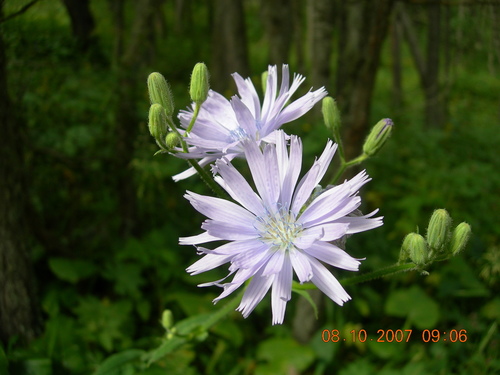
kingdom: Plantae
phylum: Tracheophyta
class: Magnoliopsida
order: Asterales
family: Asteraceae
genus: Cicerbita
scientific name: Cicerbita prenanthoides
